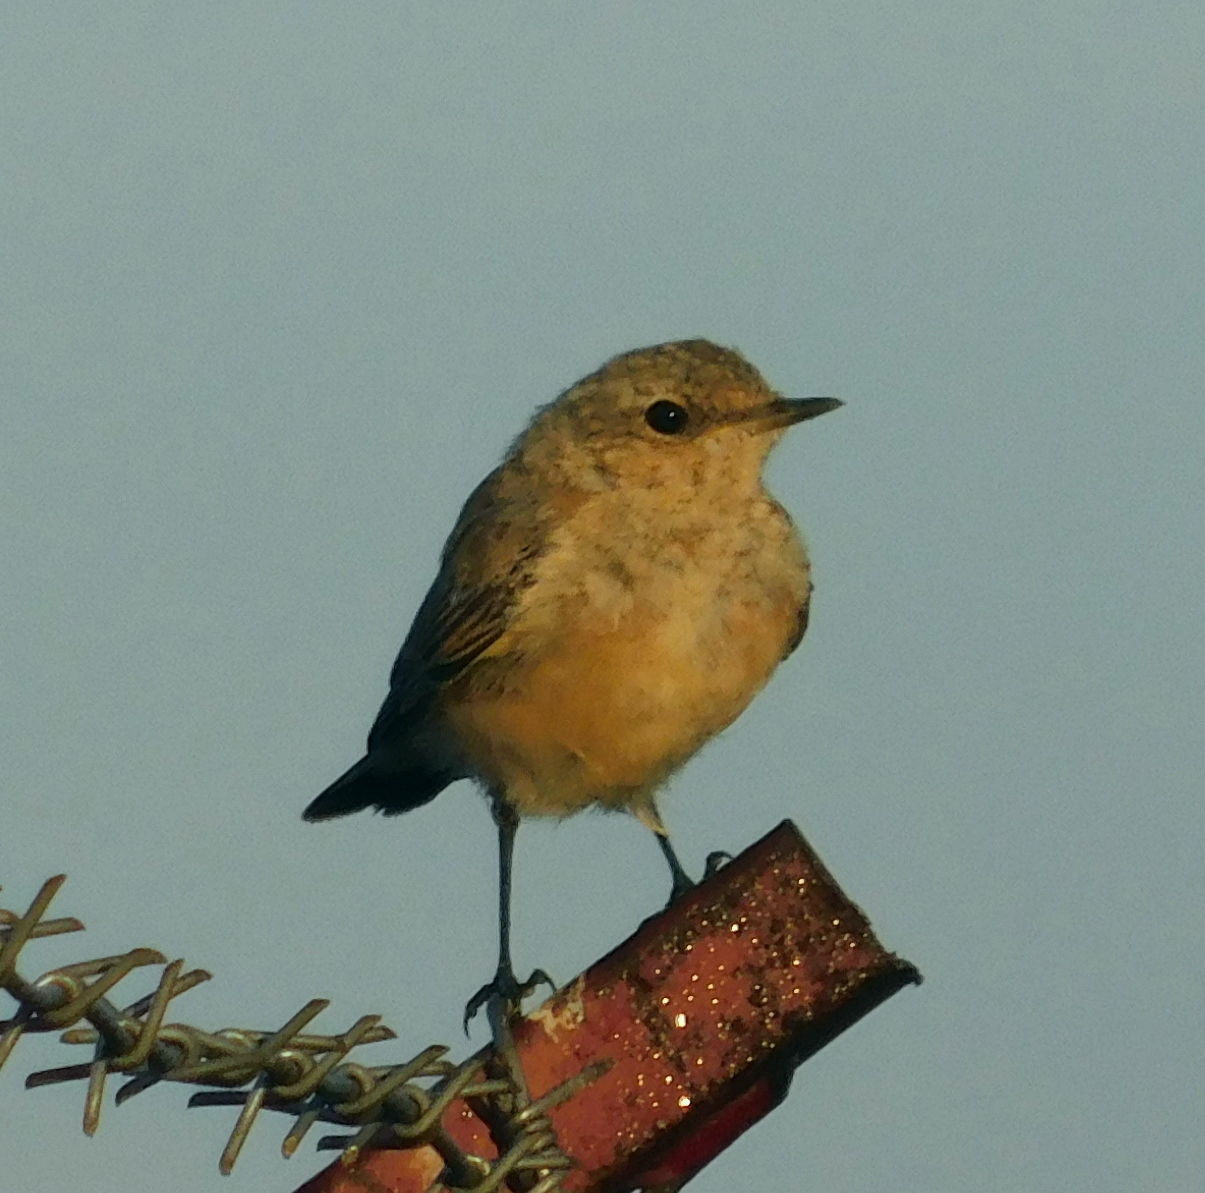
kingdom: Animalia
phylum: Chordata
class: Aves
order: Passeriformes
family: Muscicapidae
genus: Oenanthe
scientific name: Oenanthe oenanthe
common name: Northern wheatear
